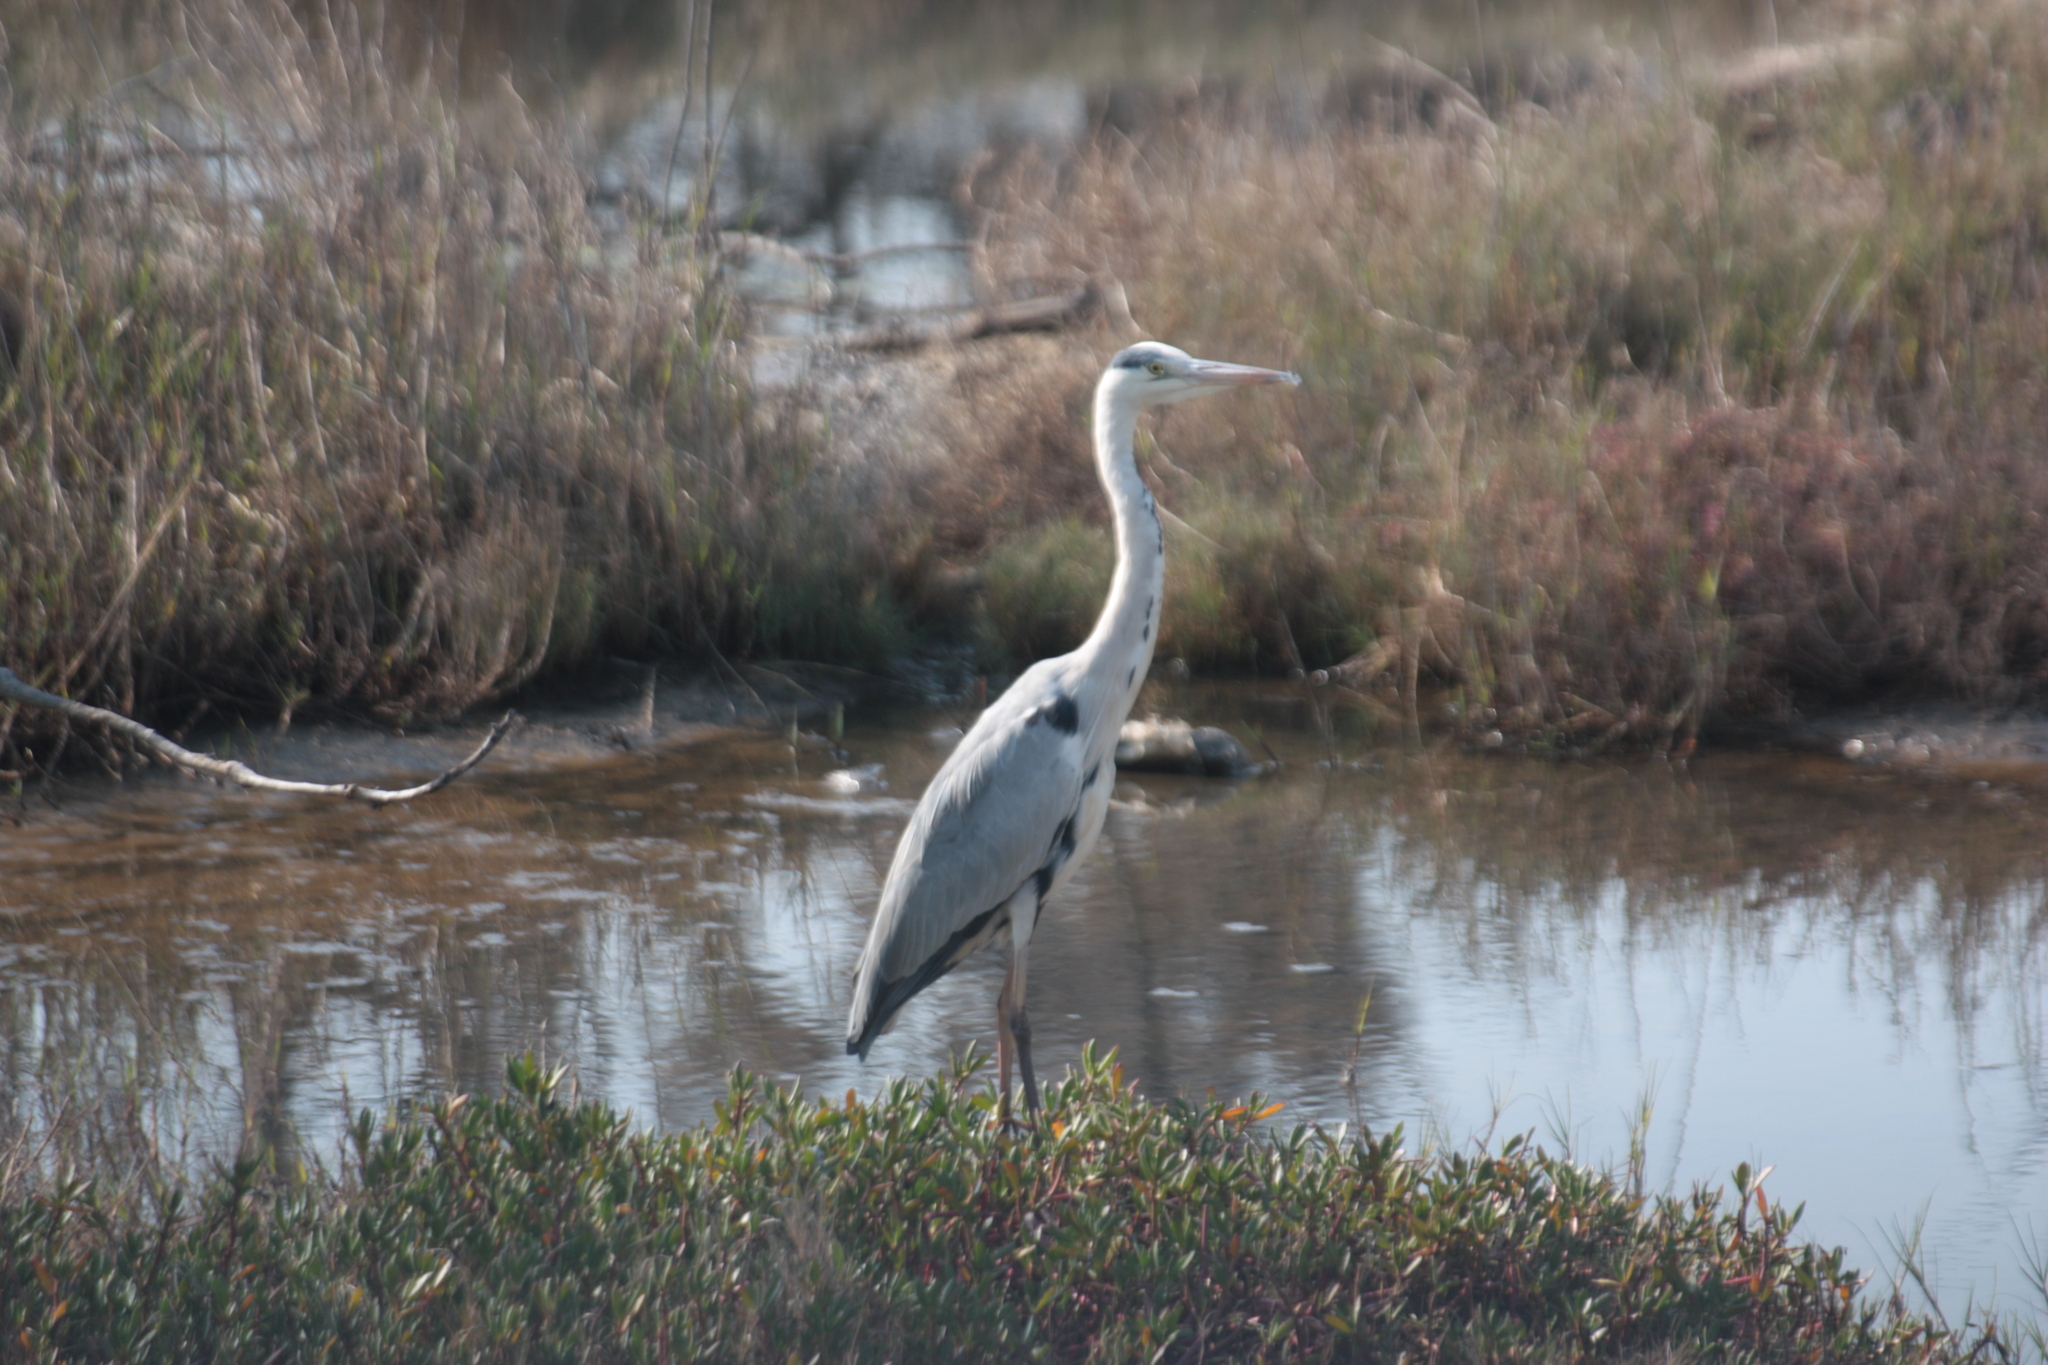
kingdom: Animalia
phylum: Chordata
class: Aves
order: Pelecaniformes
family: Ardeidae
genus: Ardea
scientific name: Ardea cinerea
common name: Grey heron
